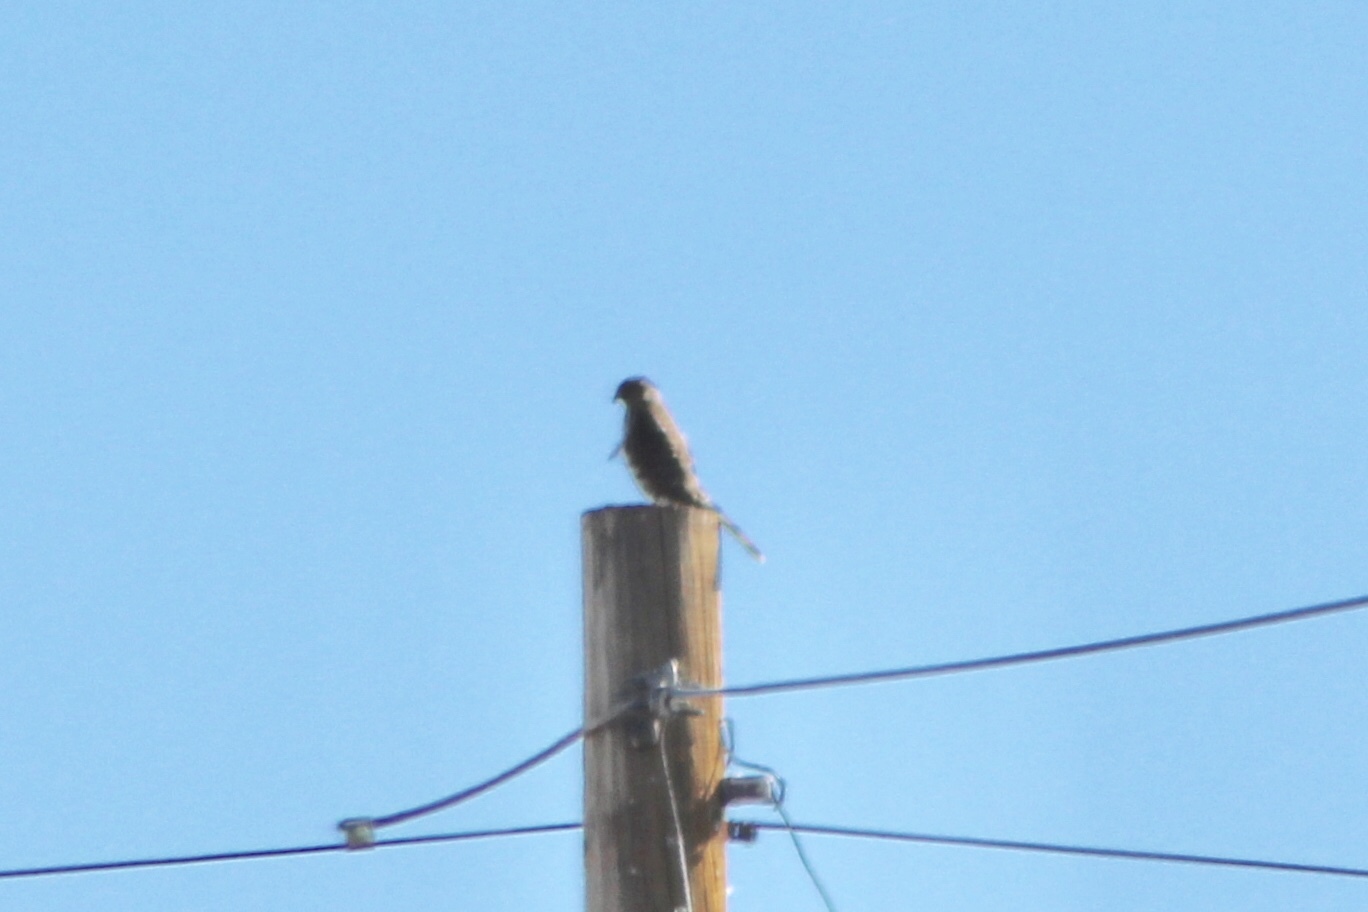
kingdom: Animalia
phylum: Chordata
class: Aves
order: Accipitriformes
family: Accipitridae
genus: Accipiter
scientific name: Accipiter cooperii
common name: Cooper's hawk
